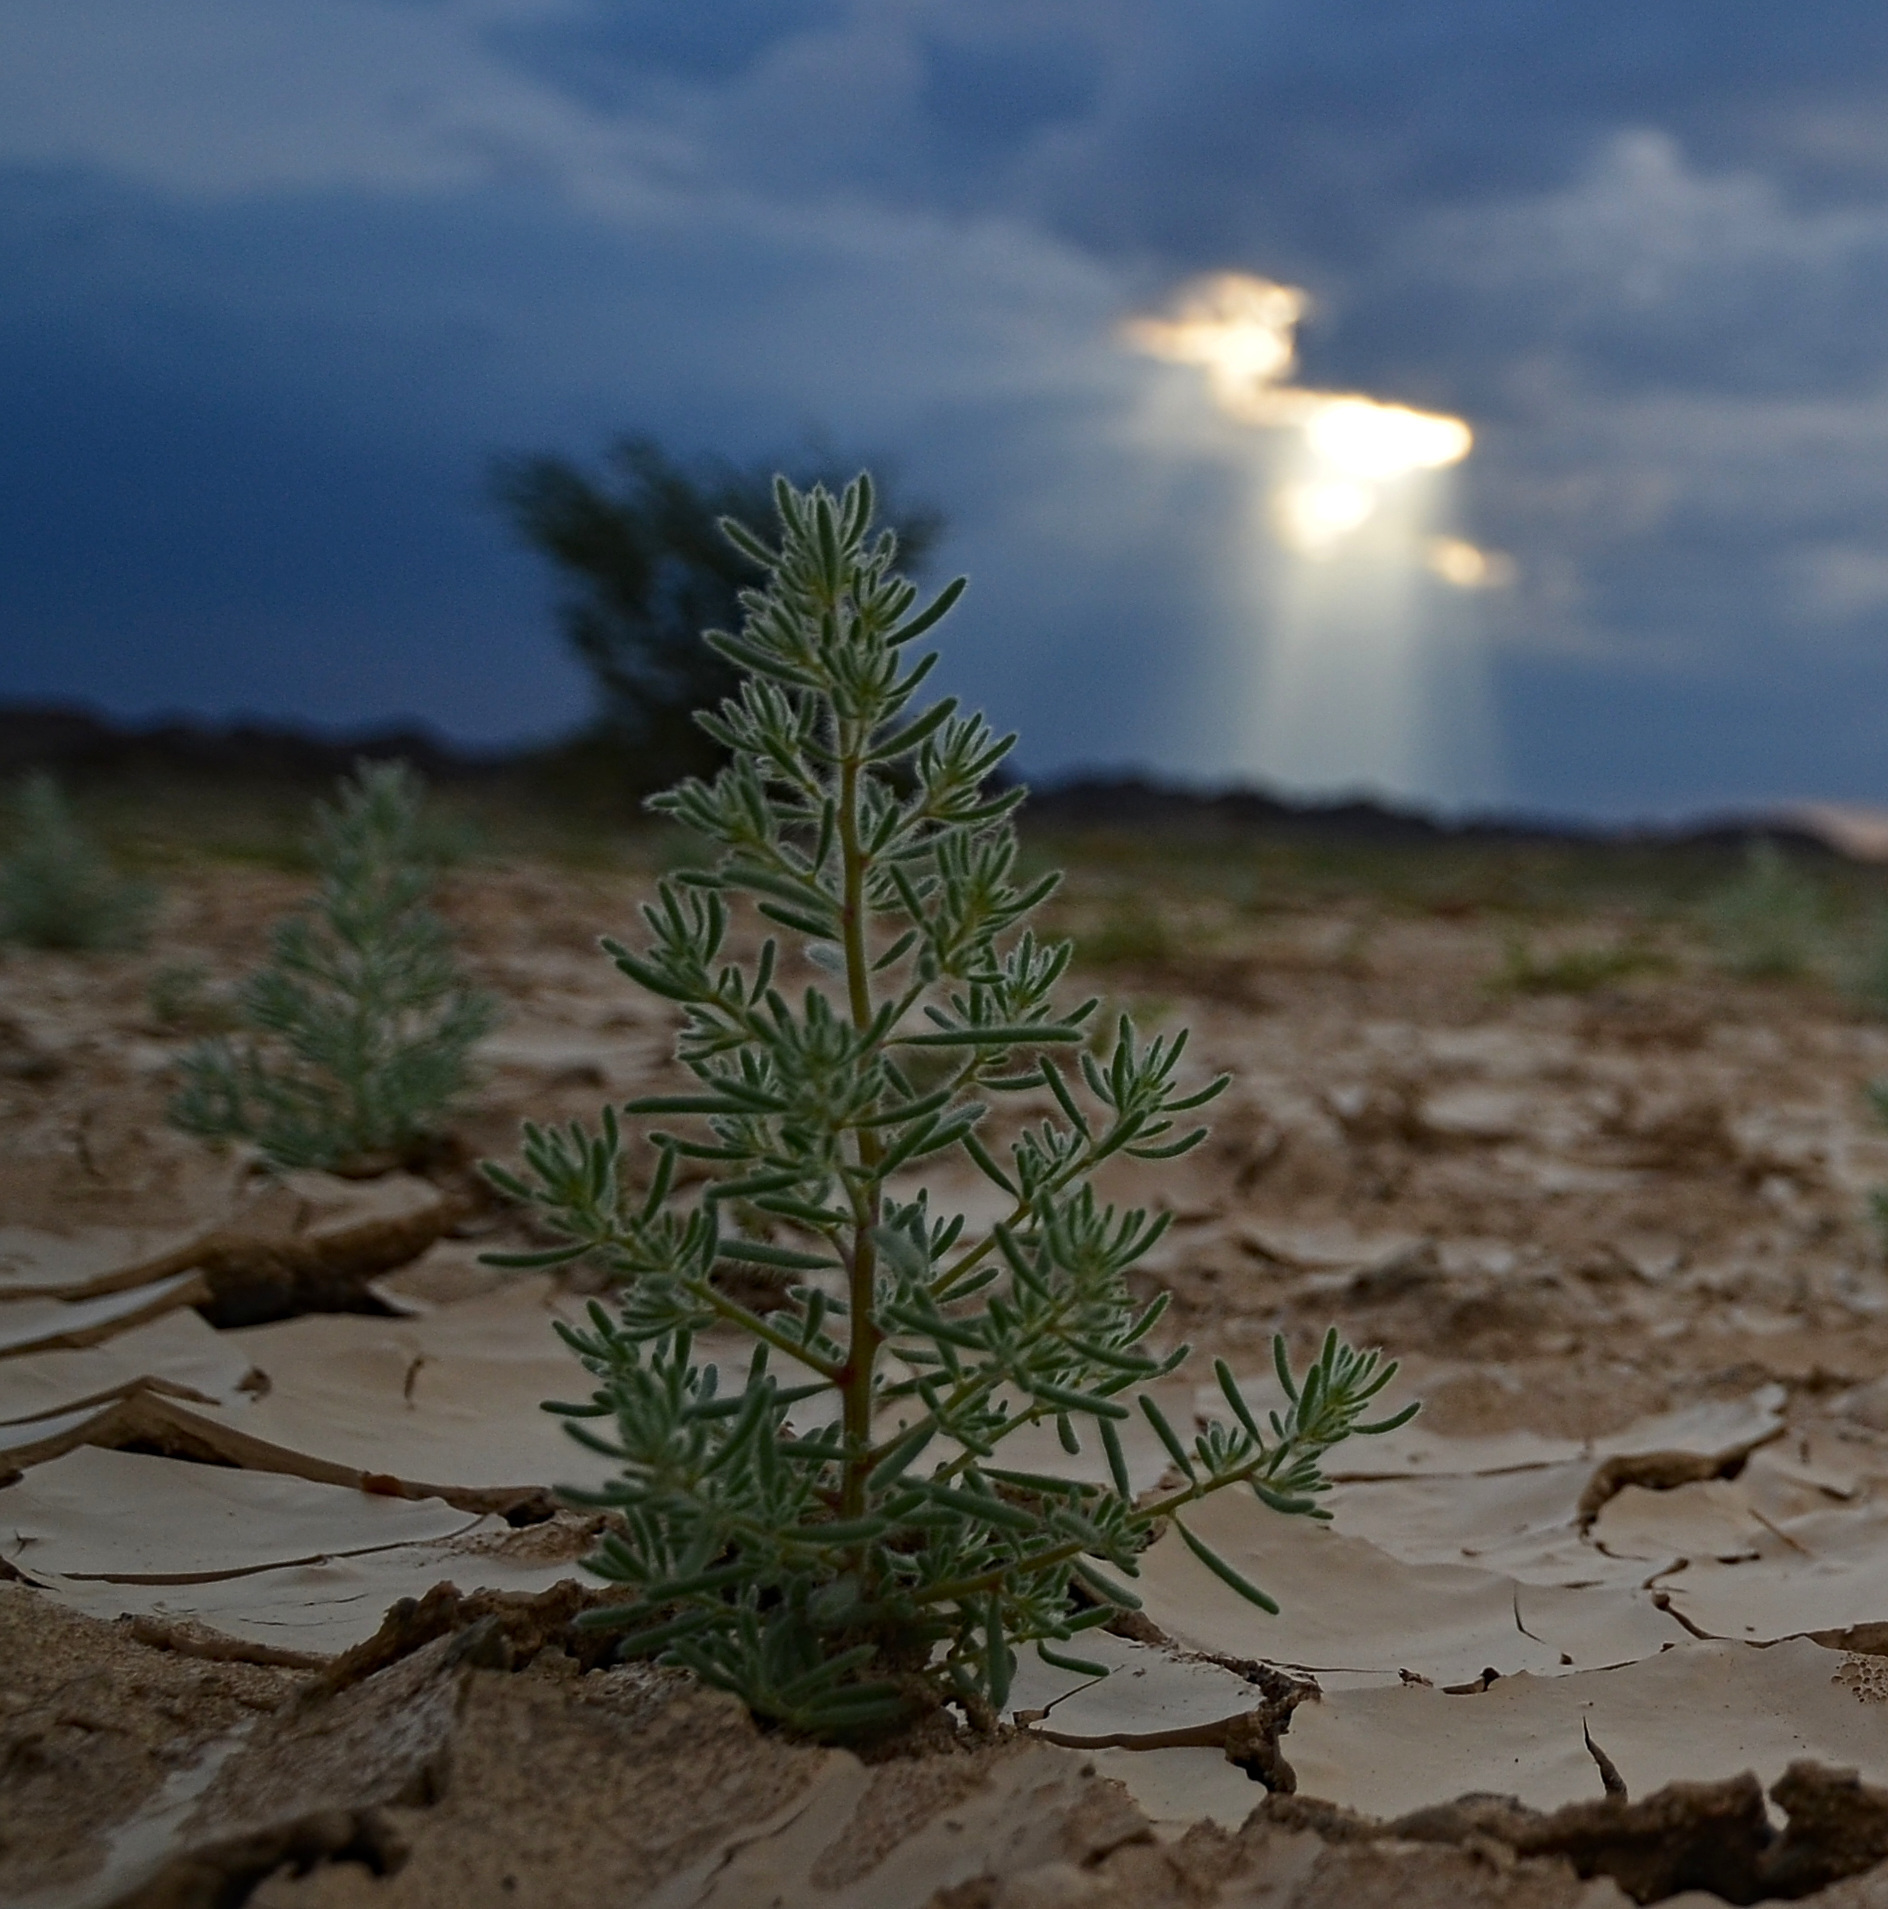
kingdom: Plantae
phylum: Tracheophyta
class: Magnoliopsida
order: Caryophyllales
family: Amaranthaceae
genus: Grubovia
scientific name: Grubovia dasyphylla
